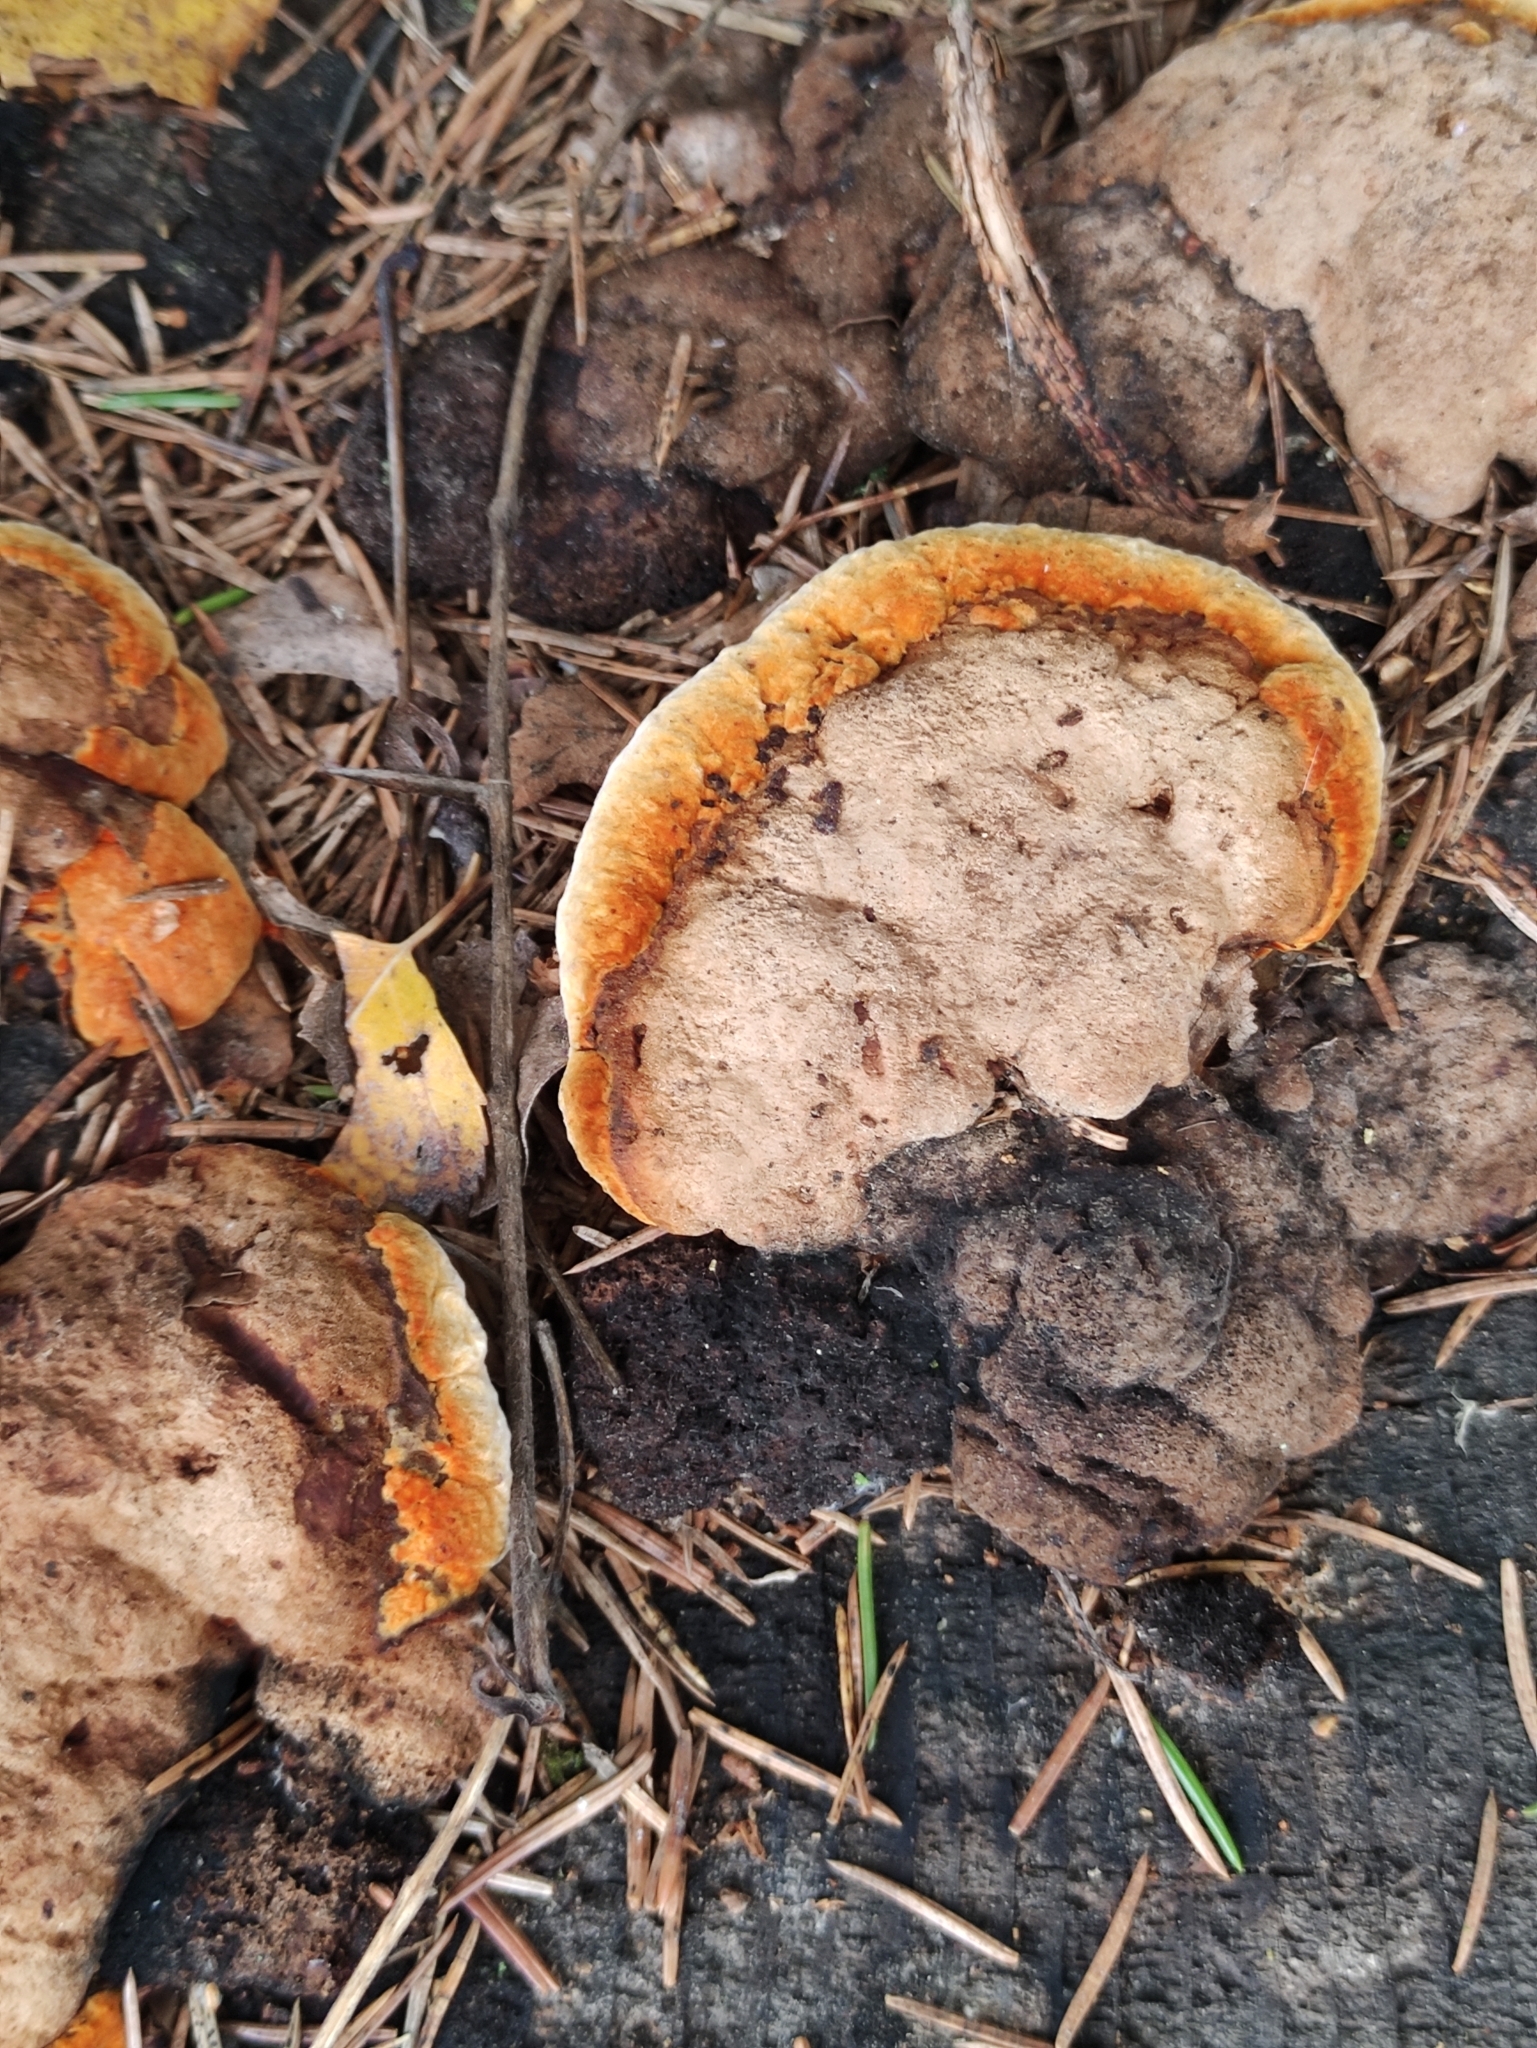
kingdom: Fungi
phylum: Basidiomycota
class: Agaricomycetes
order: Gloeophyllales
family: Gloeophyllaceae
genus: Gloeophyllum
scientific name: Gloeophyllum odoratum
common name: Anise mazegill
